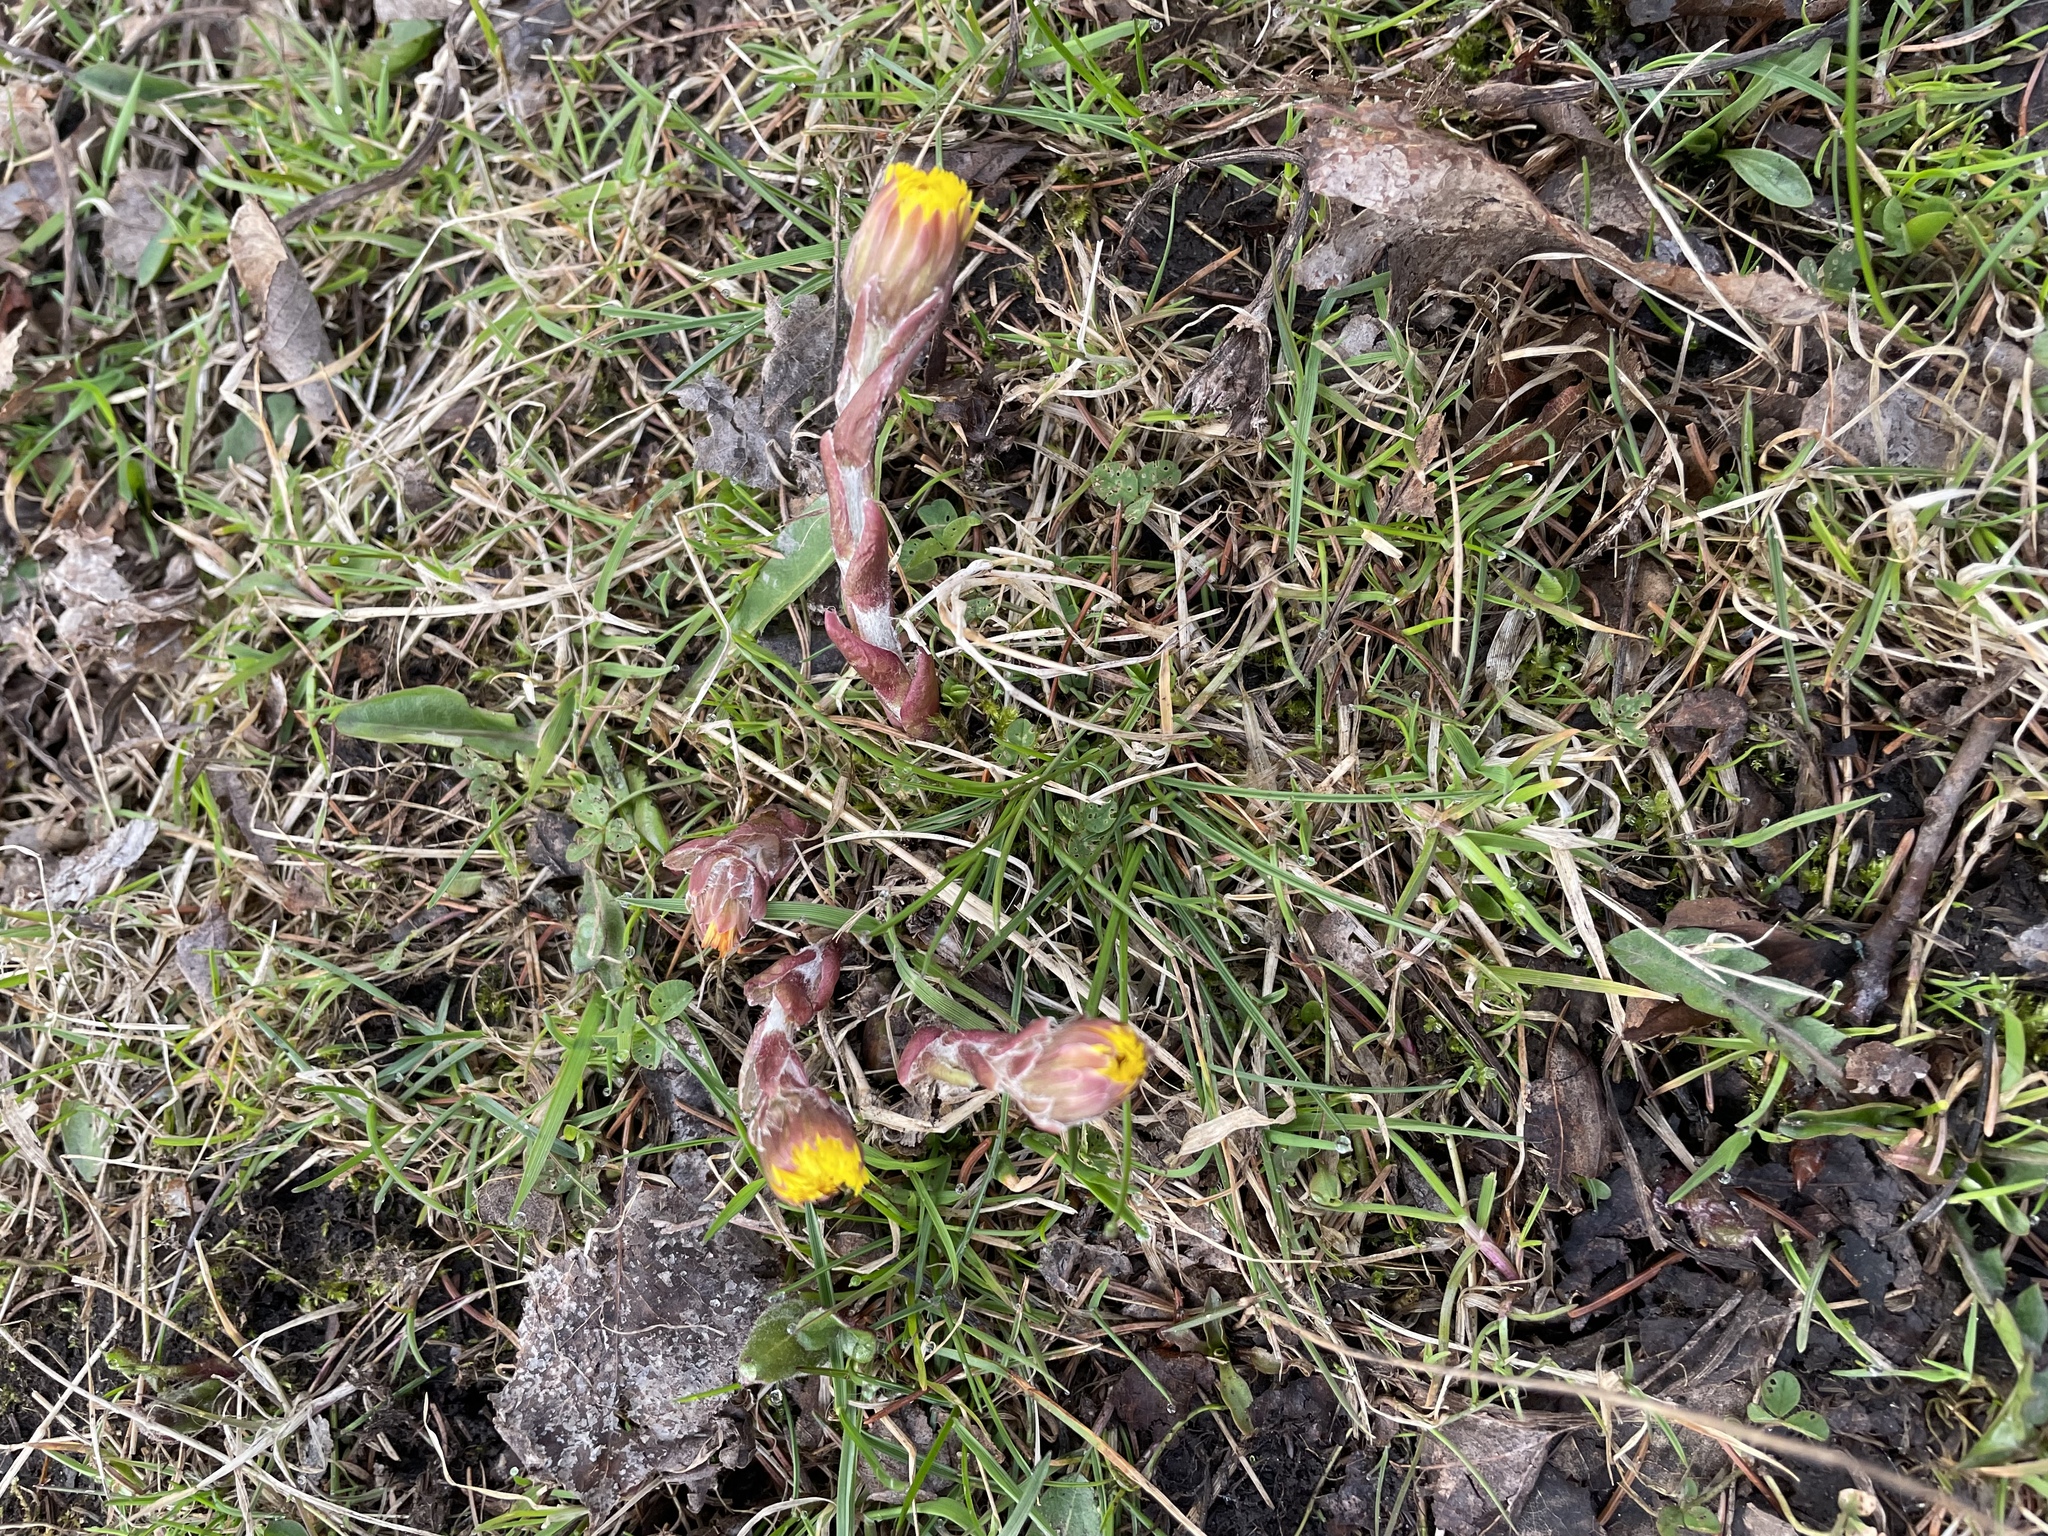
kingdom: Plantae
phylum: Tracheophyta
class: Magnoliopsida
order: Asterales
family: Asteraceae
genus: Tussilago
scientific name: Tussilago farfara
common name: Coltsfoot
